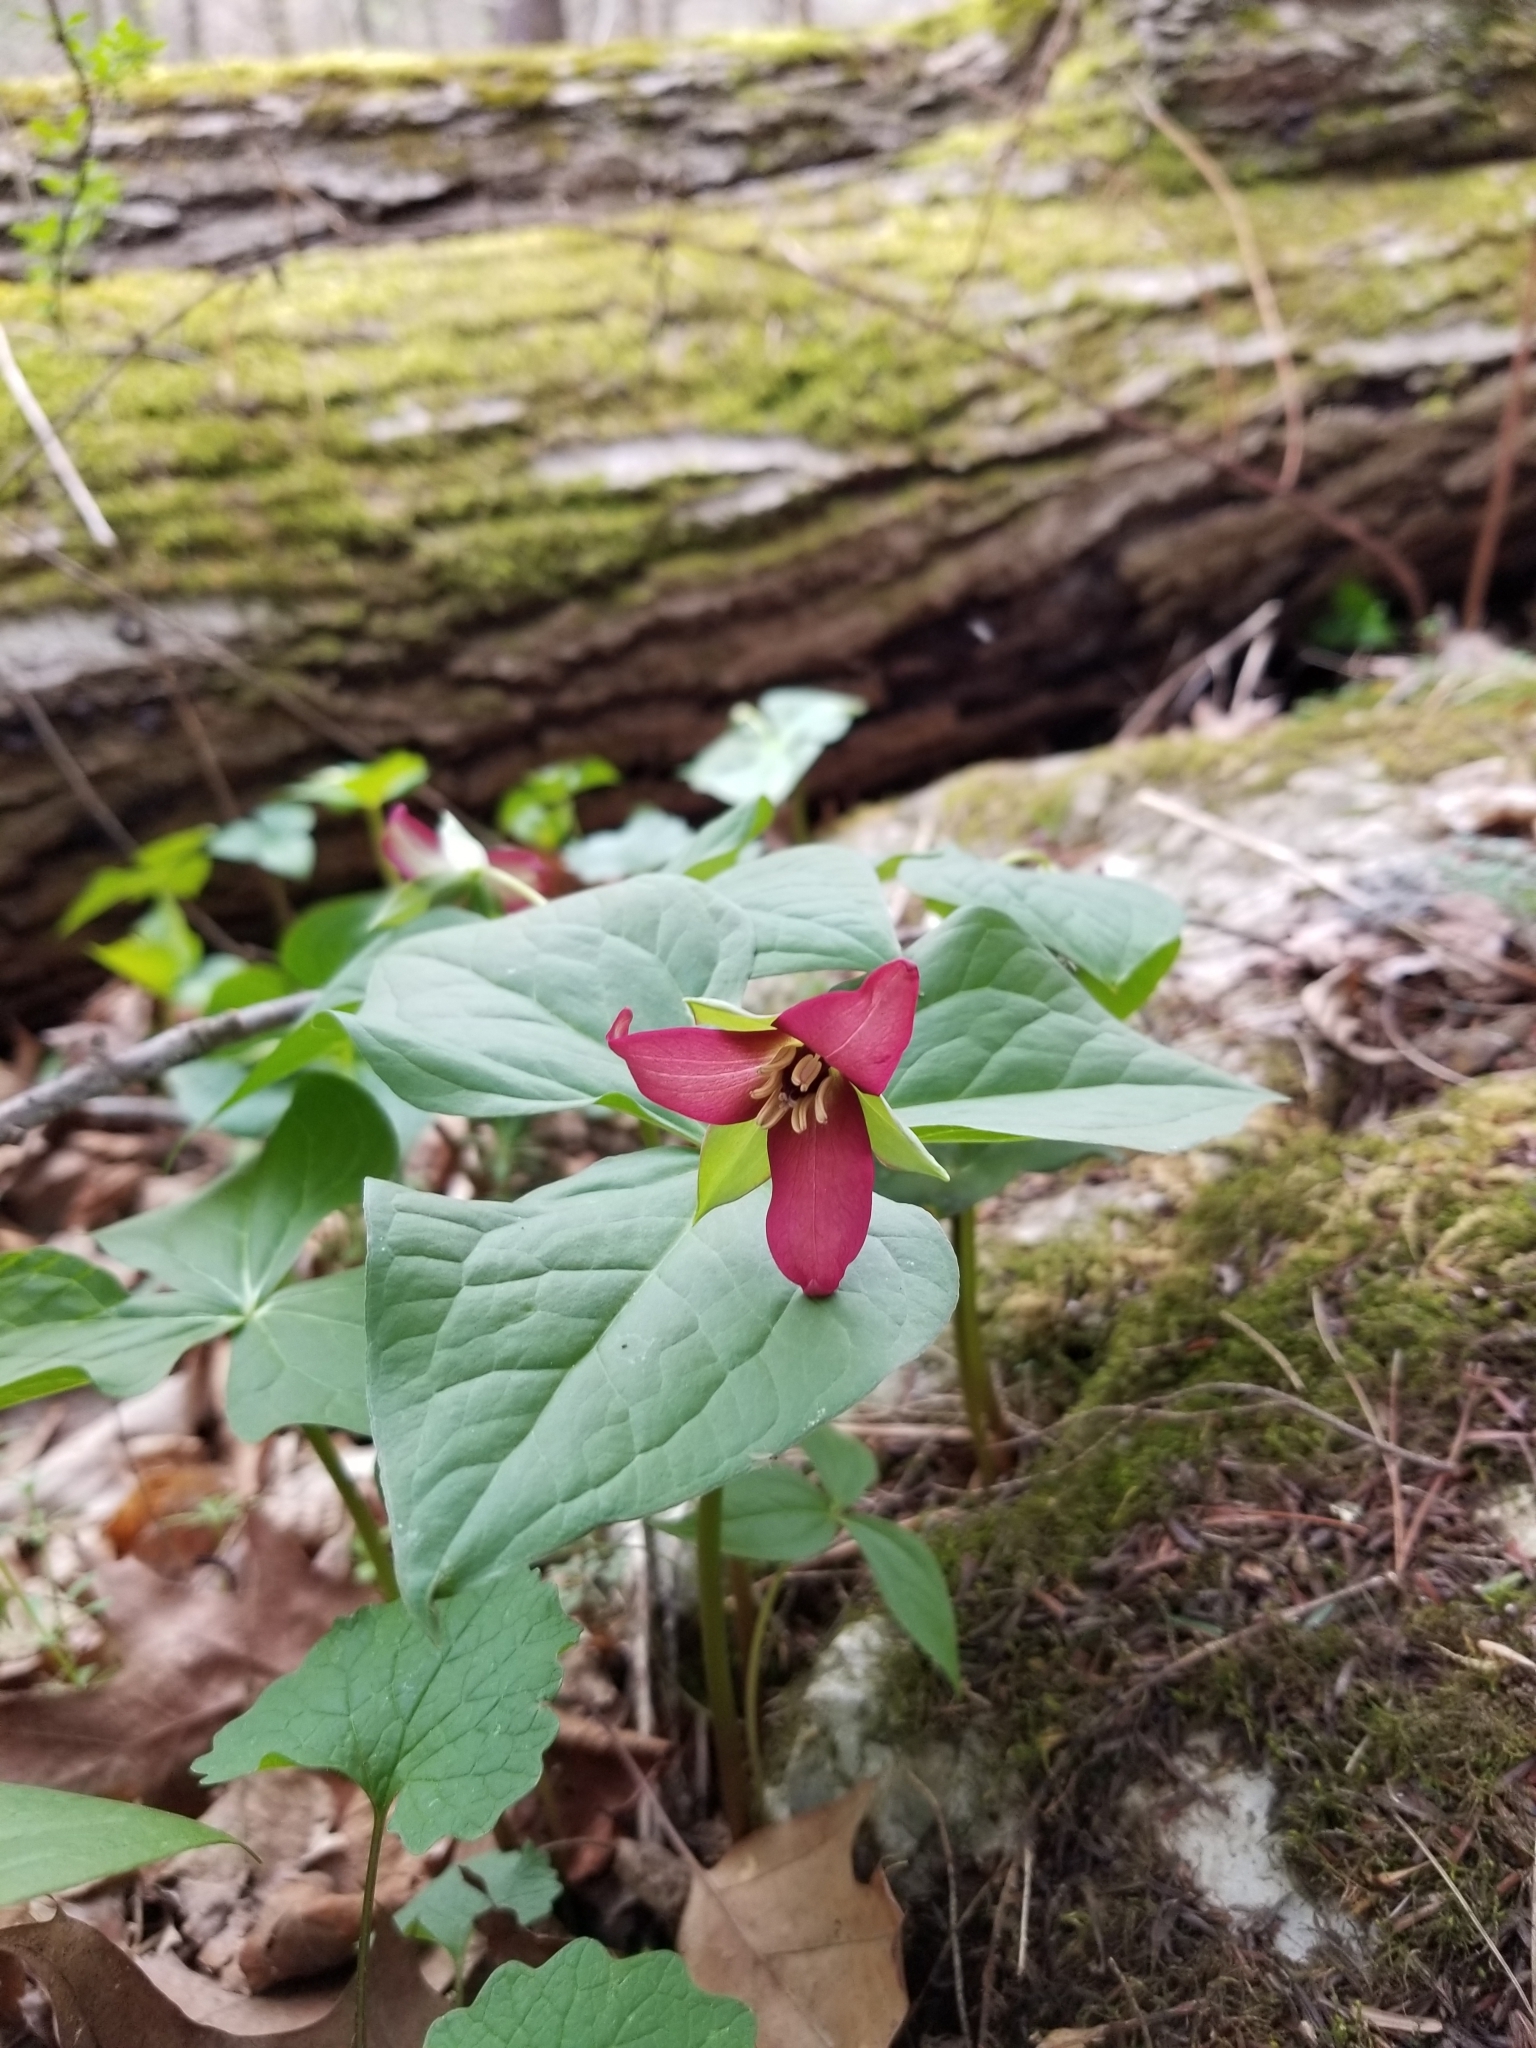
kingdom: Plantae
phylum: Tracheophyta
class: Liliopsida
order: Liliales
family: Melanthiaceae
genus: Trillium
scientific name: Trillium erectum
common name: Purple trillium
